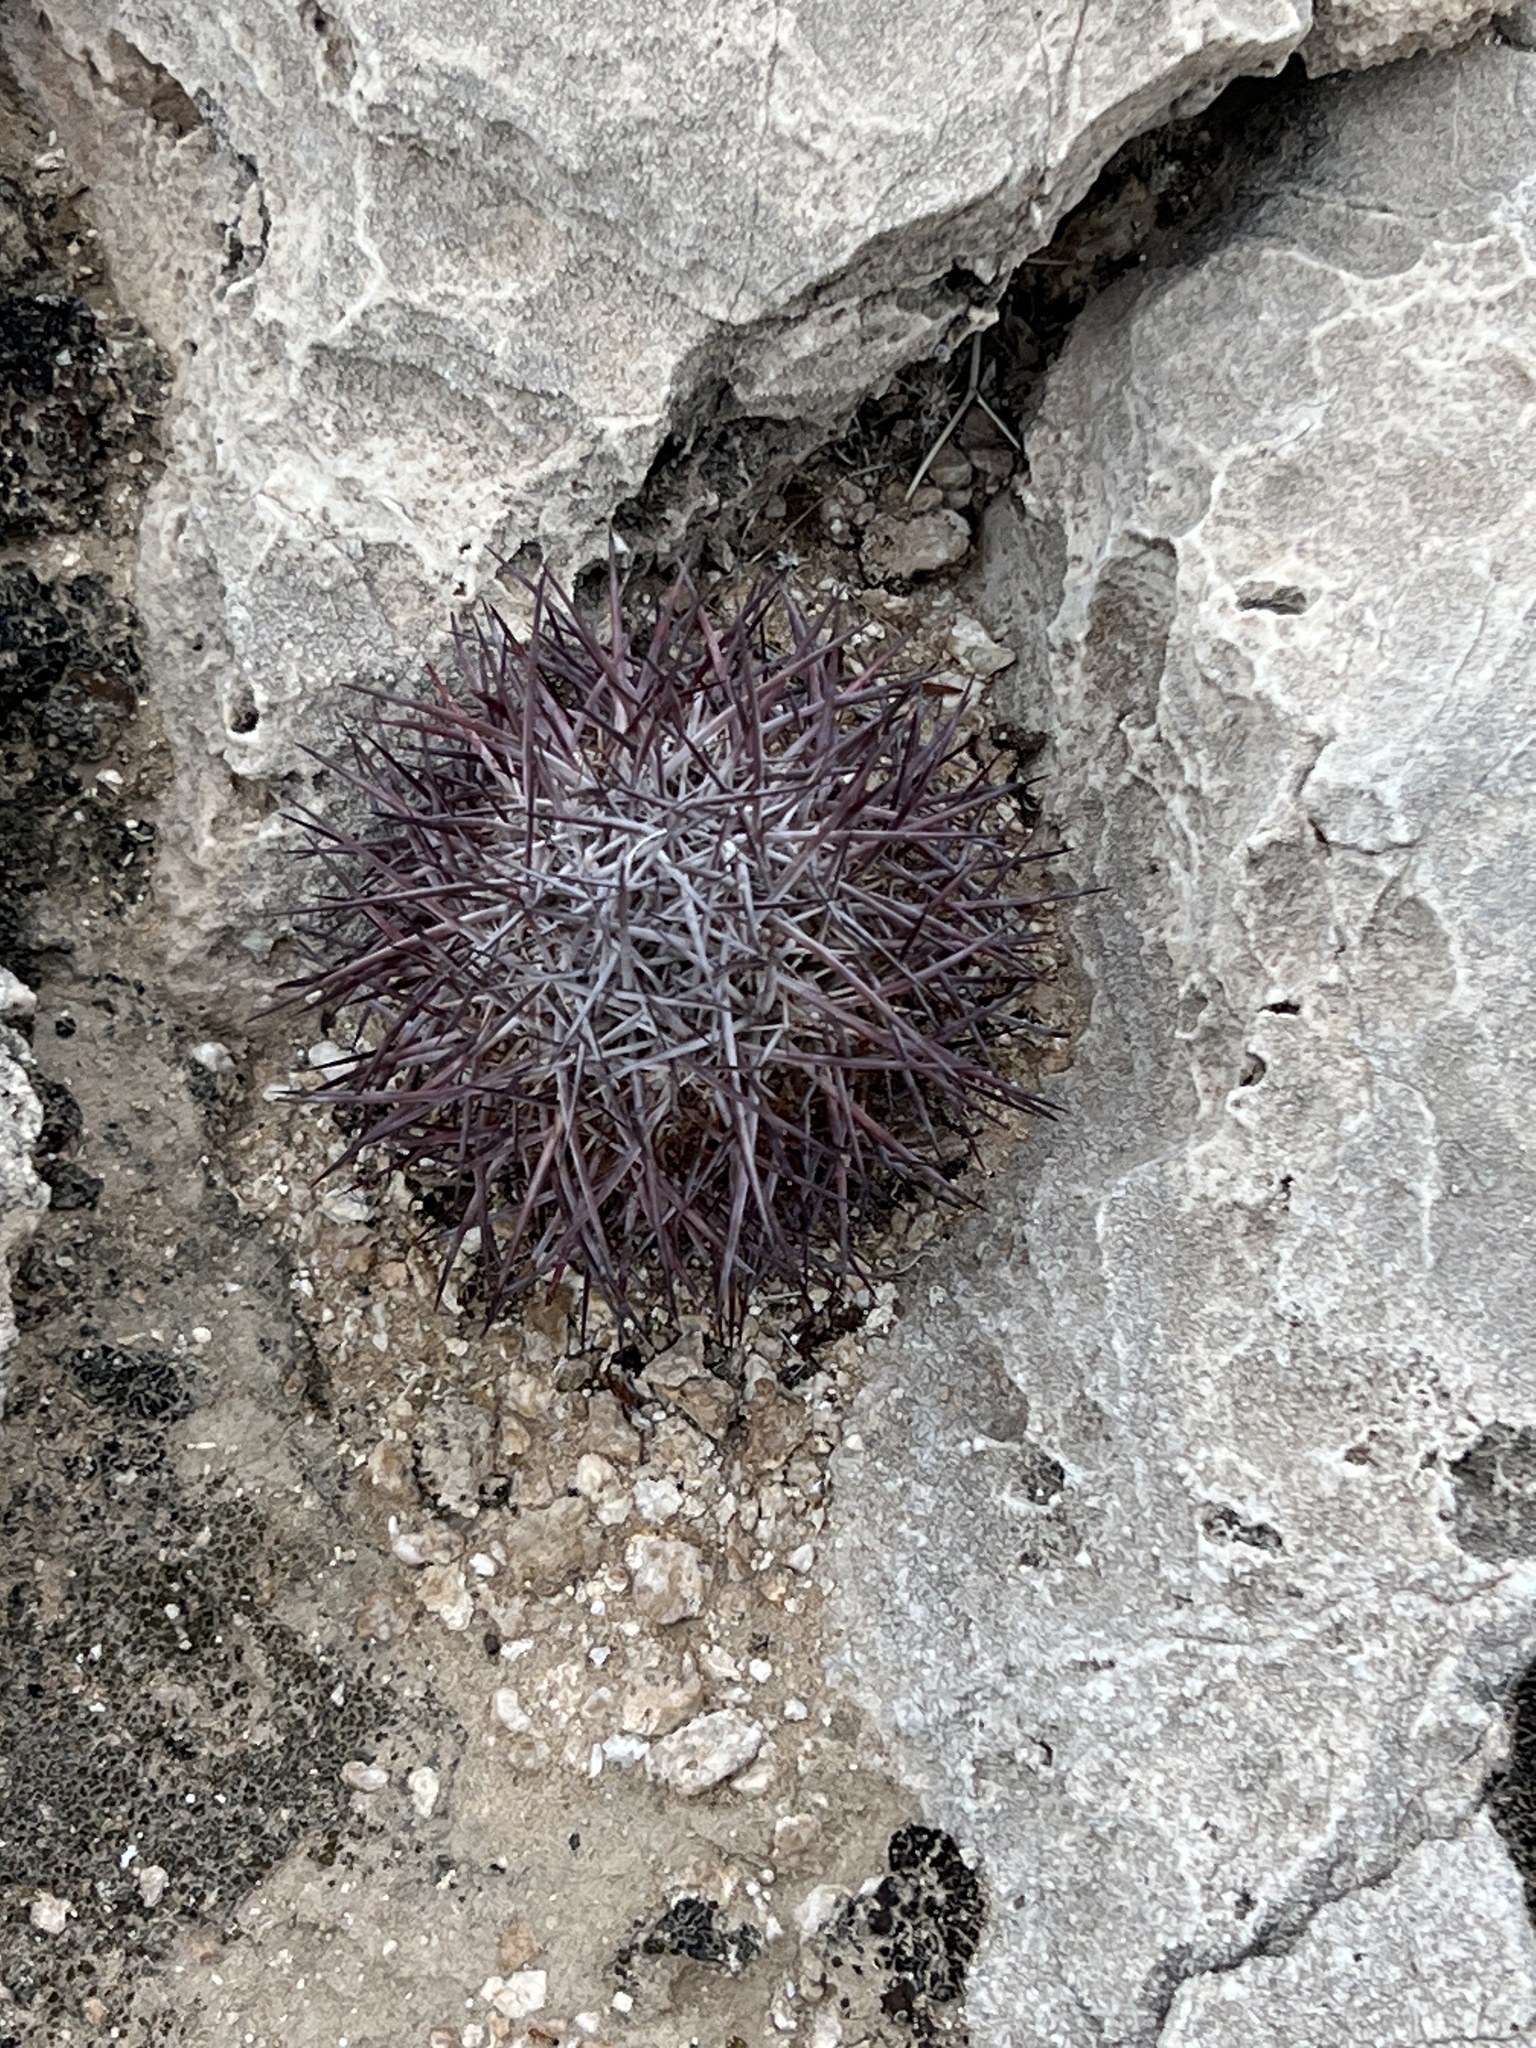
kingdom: Plantae
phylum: Tracheophyta
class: Magnoliopsida
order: Caryophyllales
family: Cactaceae
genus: Sclerocactus
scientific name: Sclerocactus johnsonii
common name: Eight-spine fishhook cactus
